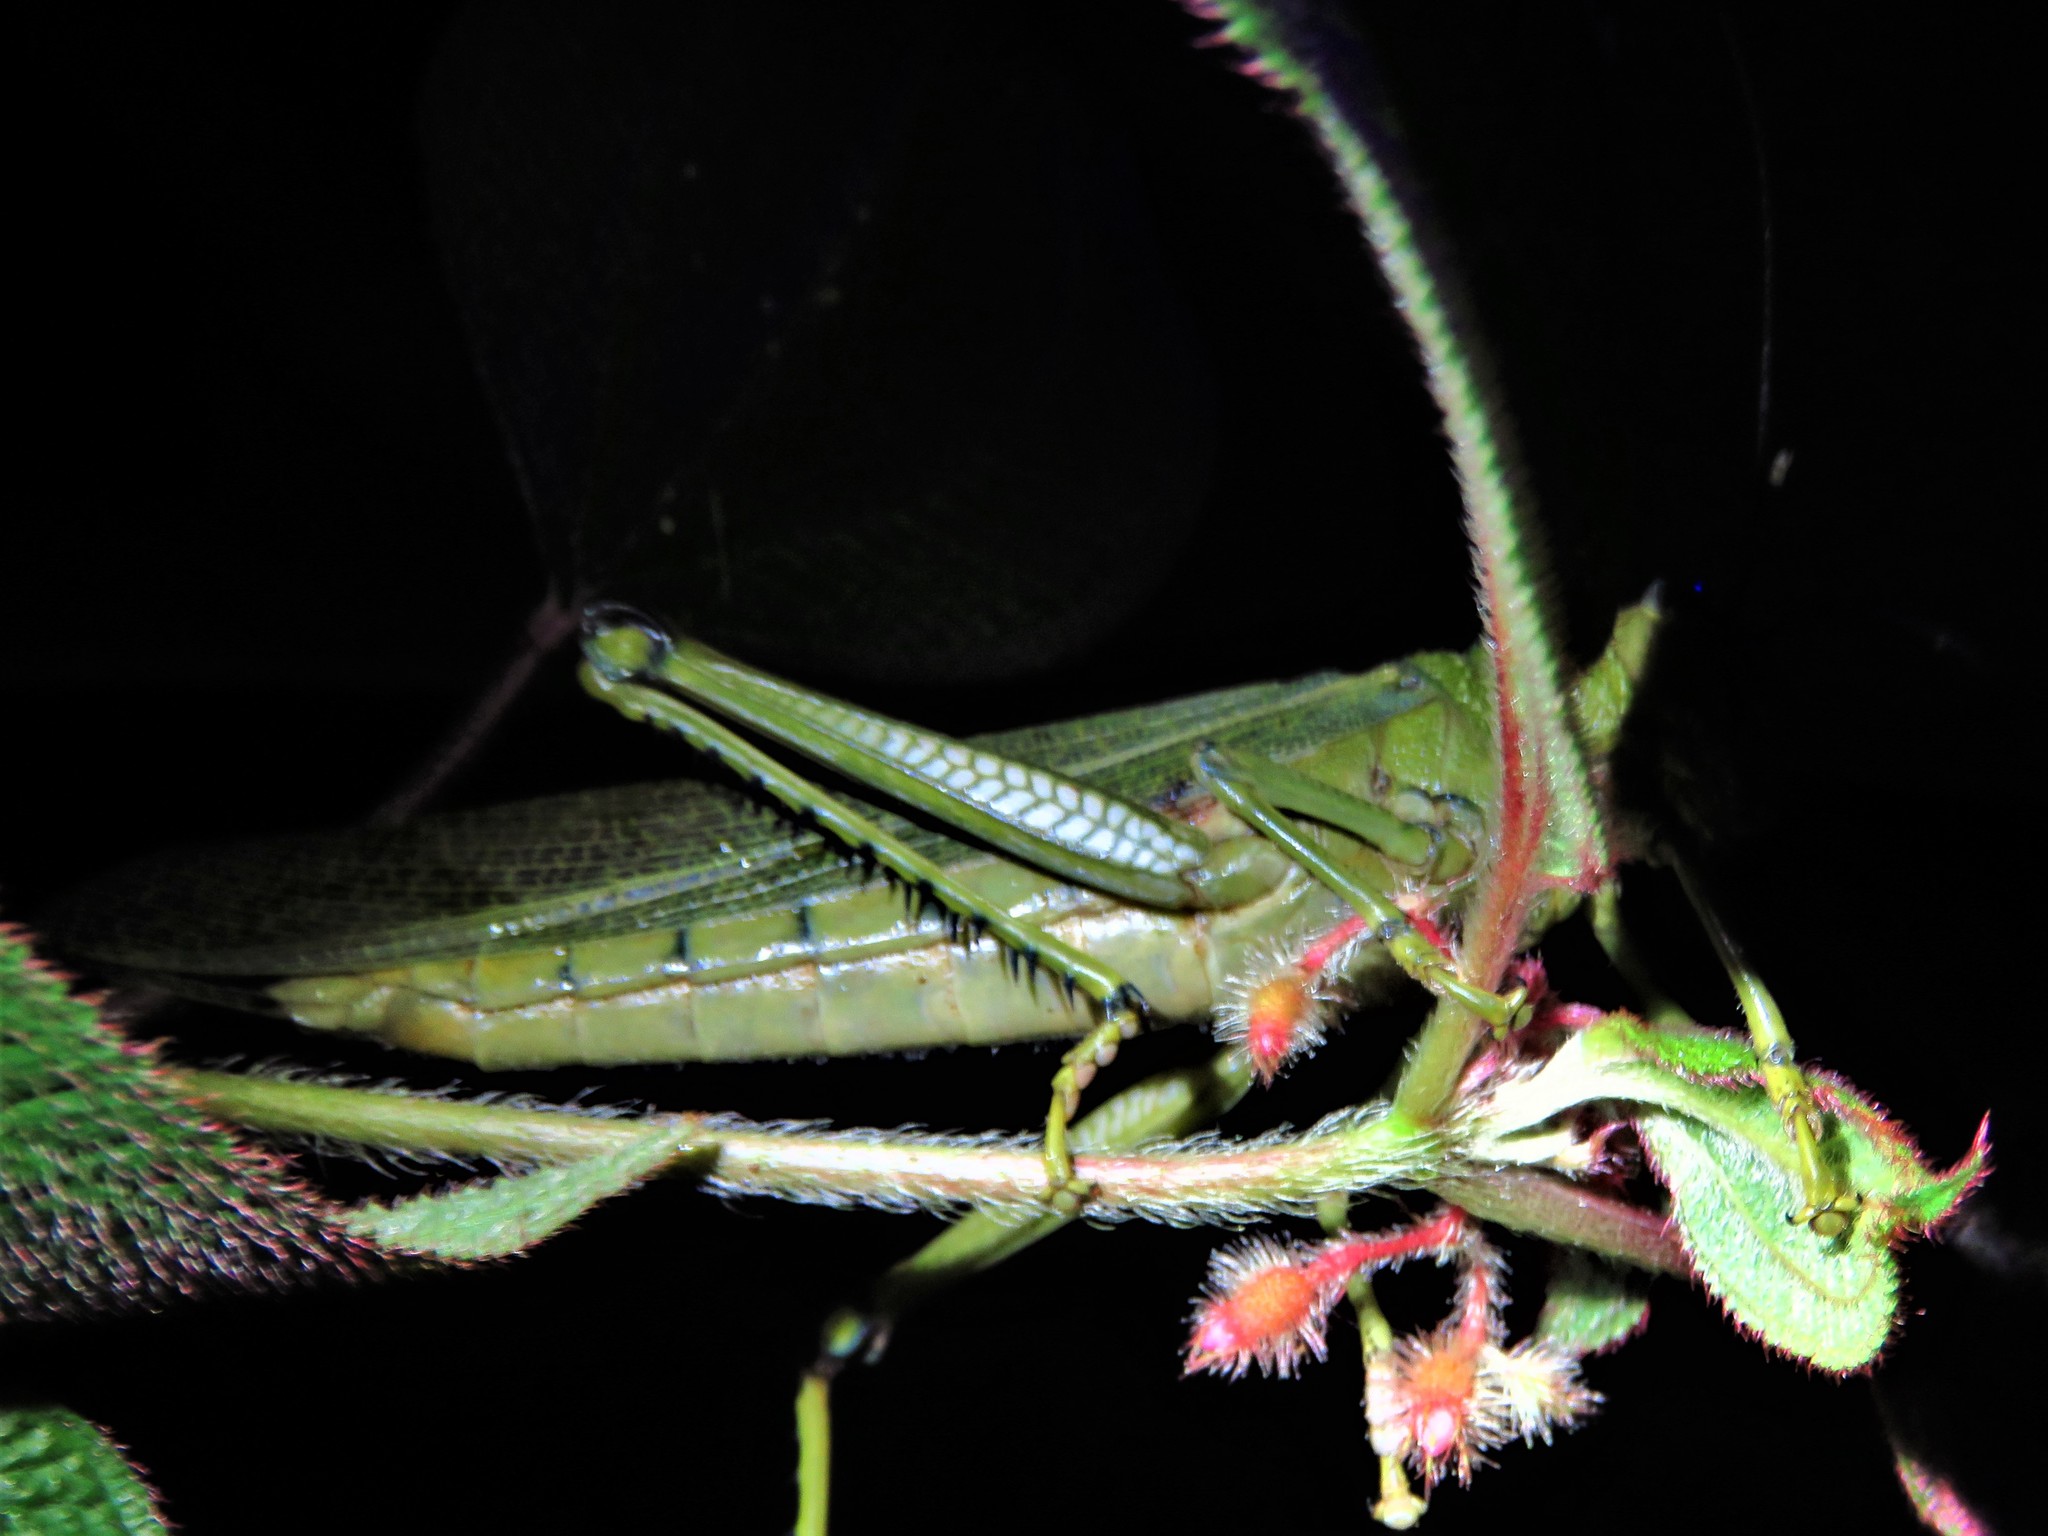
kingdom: Animalia
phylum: Arthropoda
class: Insecta
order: Orthoptera
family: Romaleidae
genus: Tropidacris
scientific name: Tropidacris cristata
